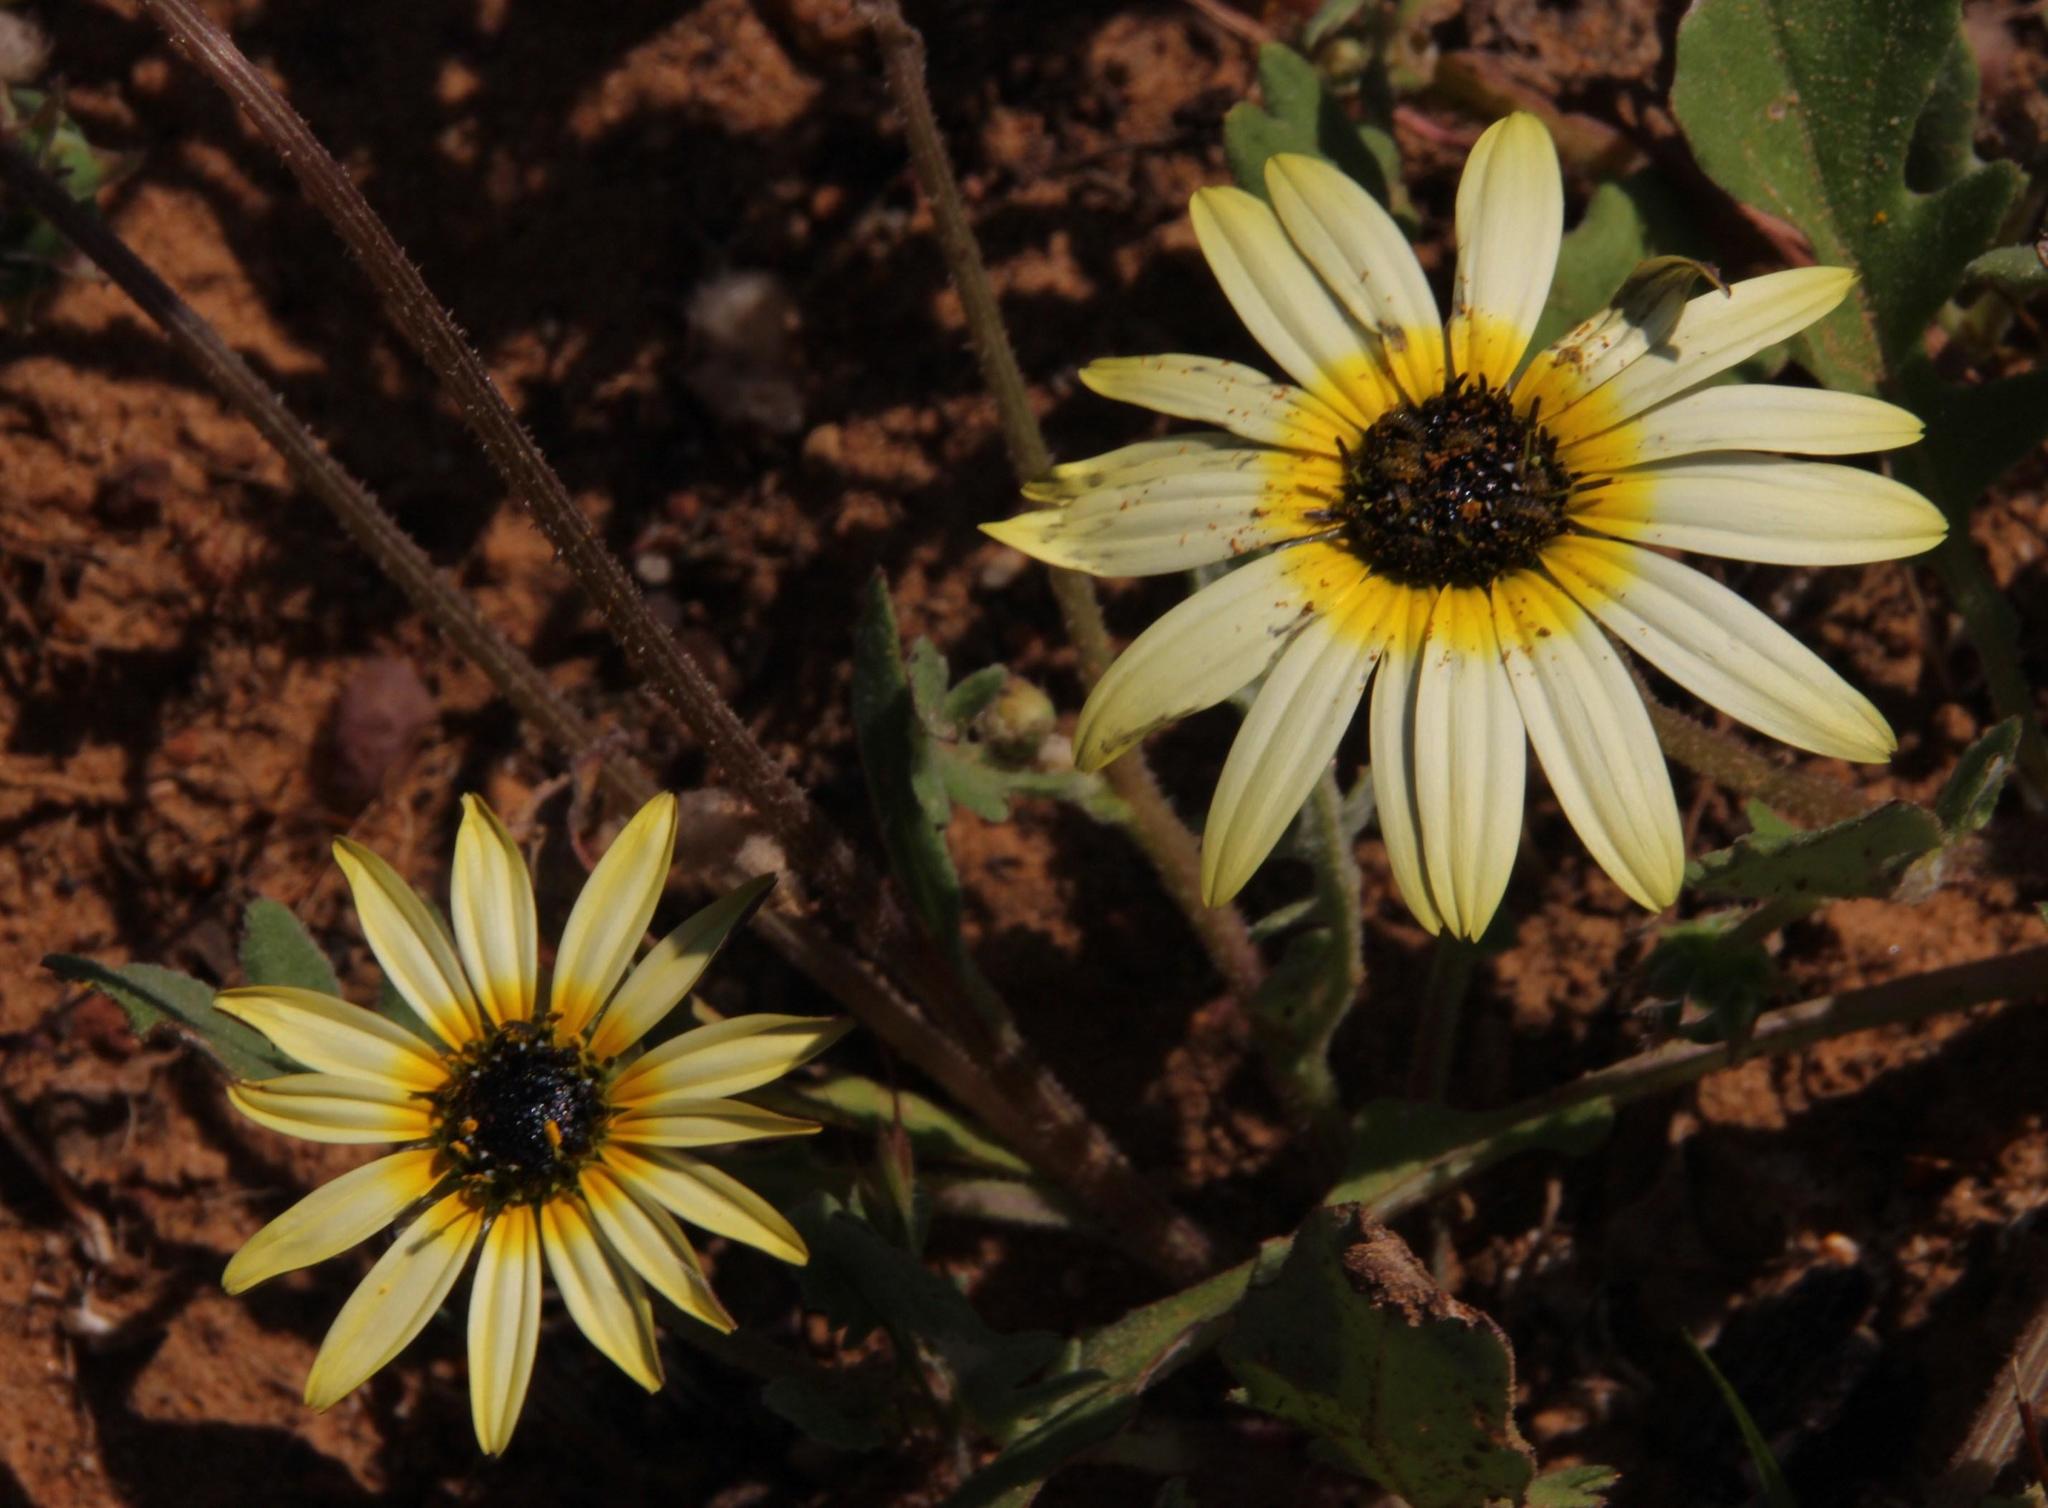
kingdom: Plantae
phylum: Tracheophyta
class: Magnoliopsida
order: Asterales
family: Asteraceae
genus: Arctotheca
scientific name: Arctotheca calendula
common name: Capeweed
